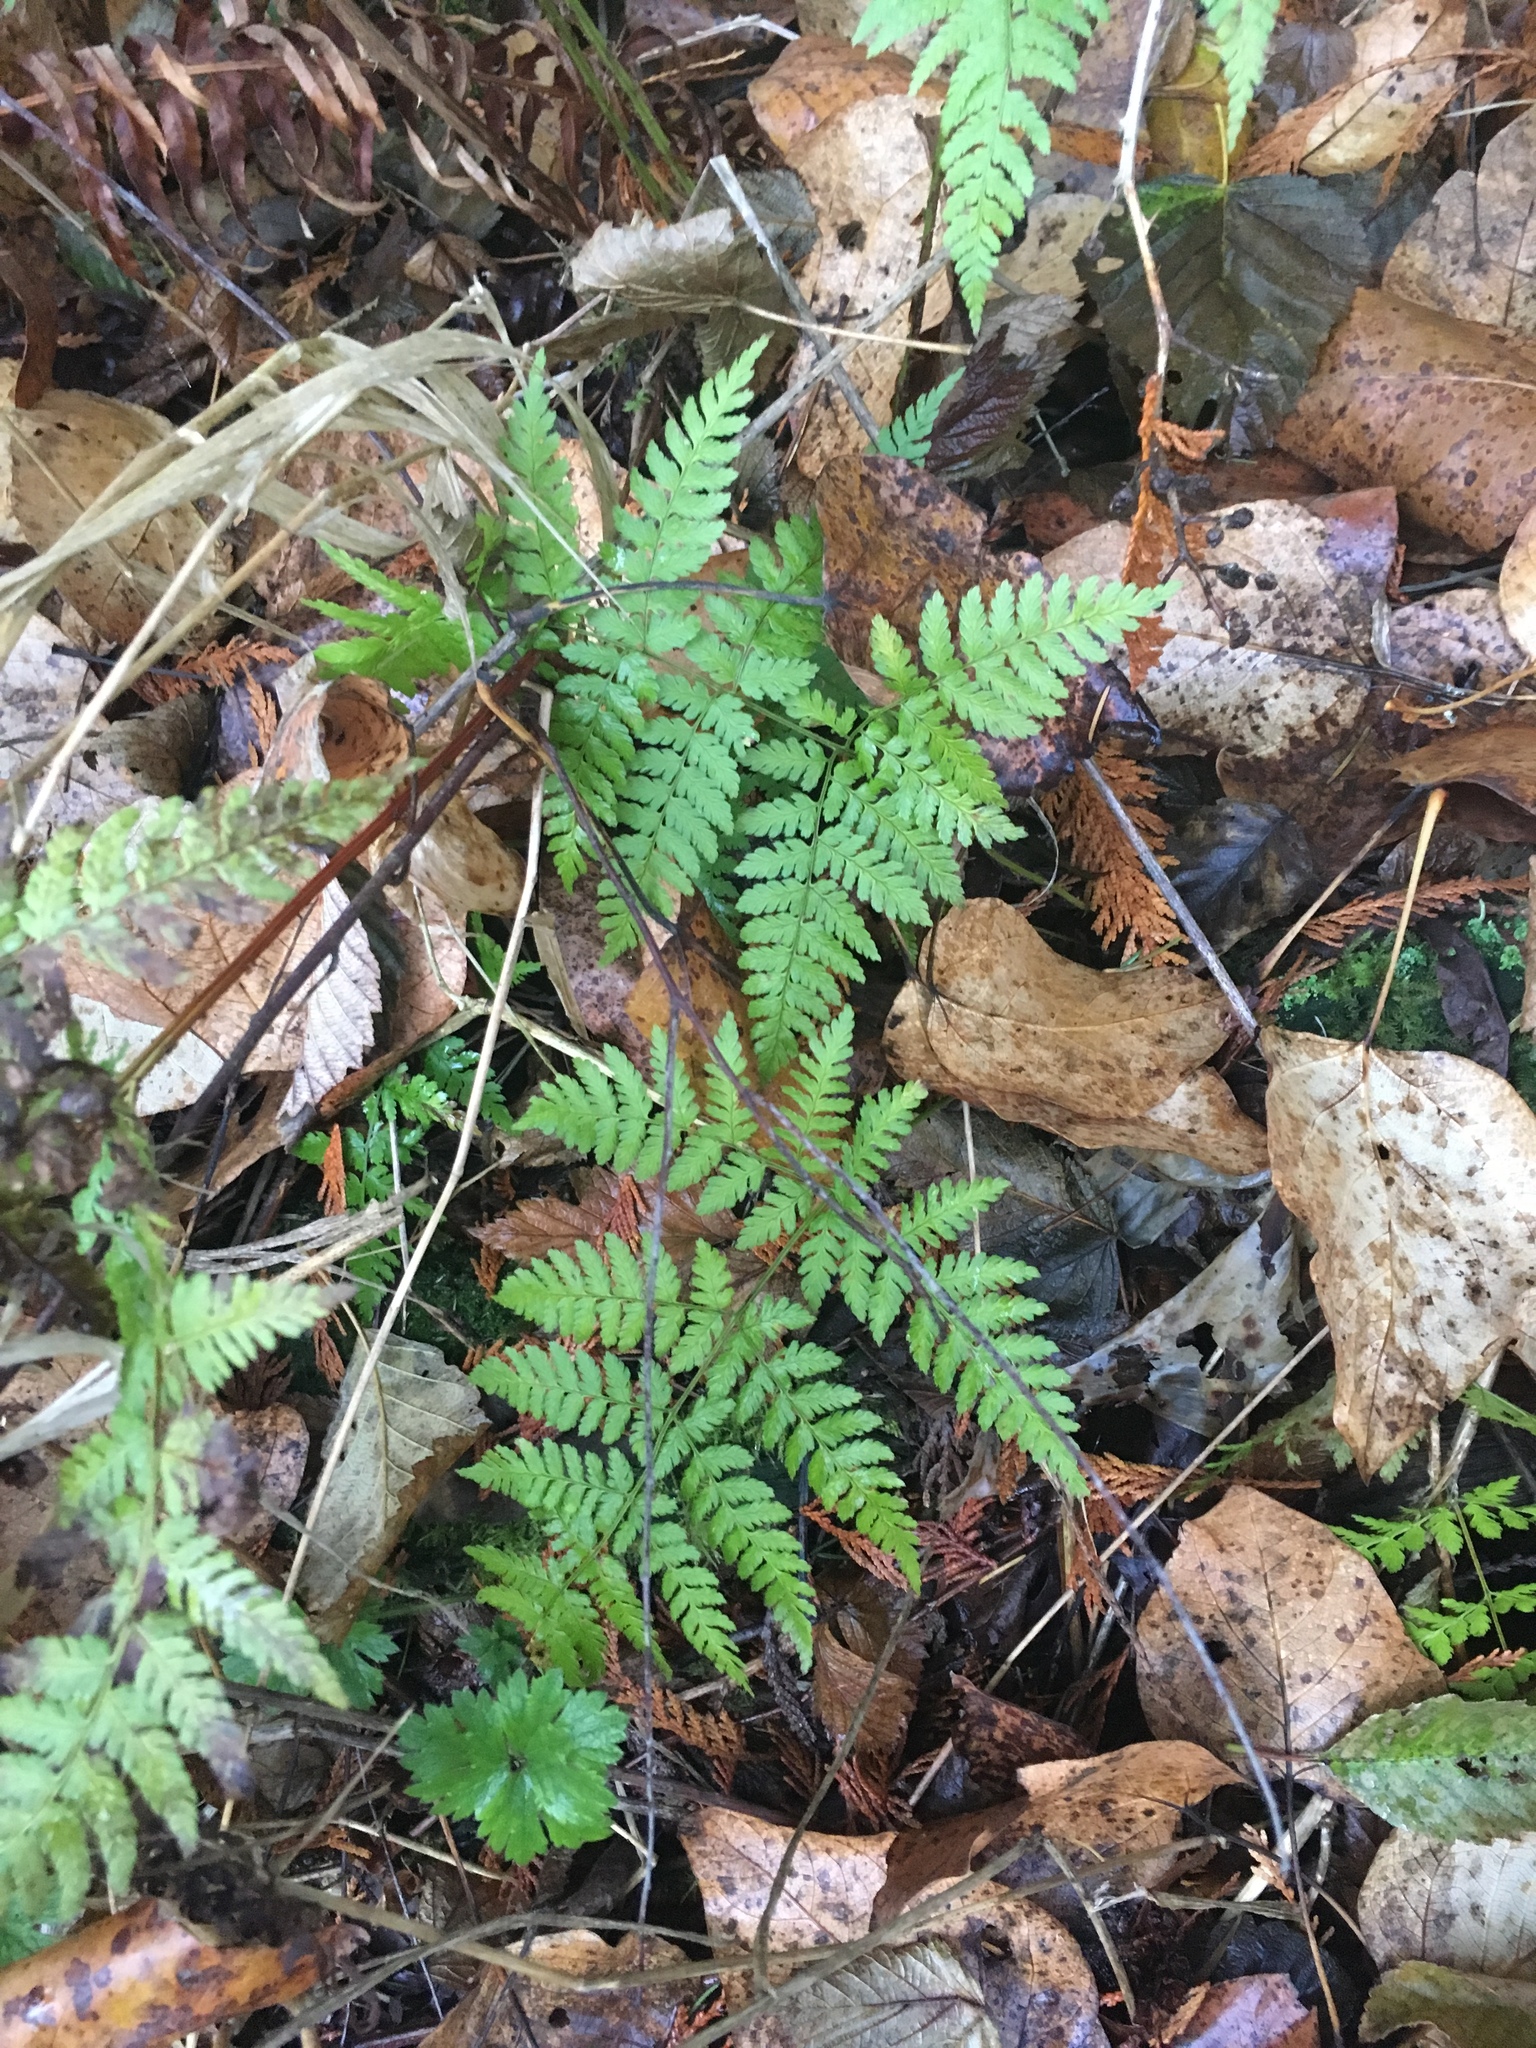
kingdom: Plantae
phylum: Tracheophyta
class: Polypodiopsida
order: Polypodiales
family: Dryopteridaceae
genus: Dryopteris
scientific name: Dryopteris expansa
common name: Northern buckler fern
